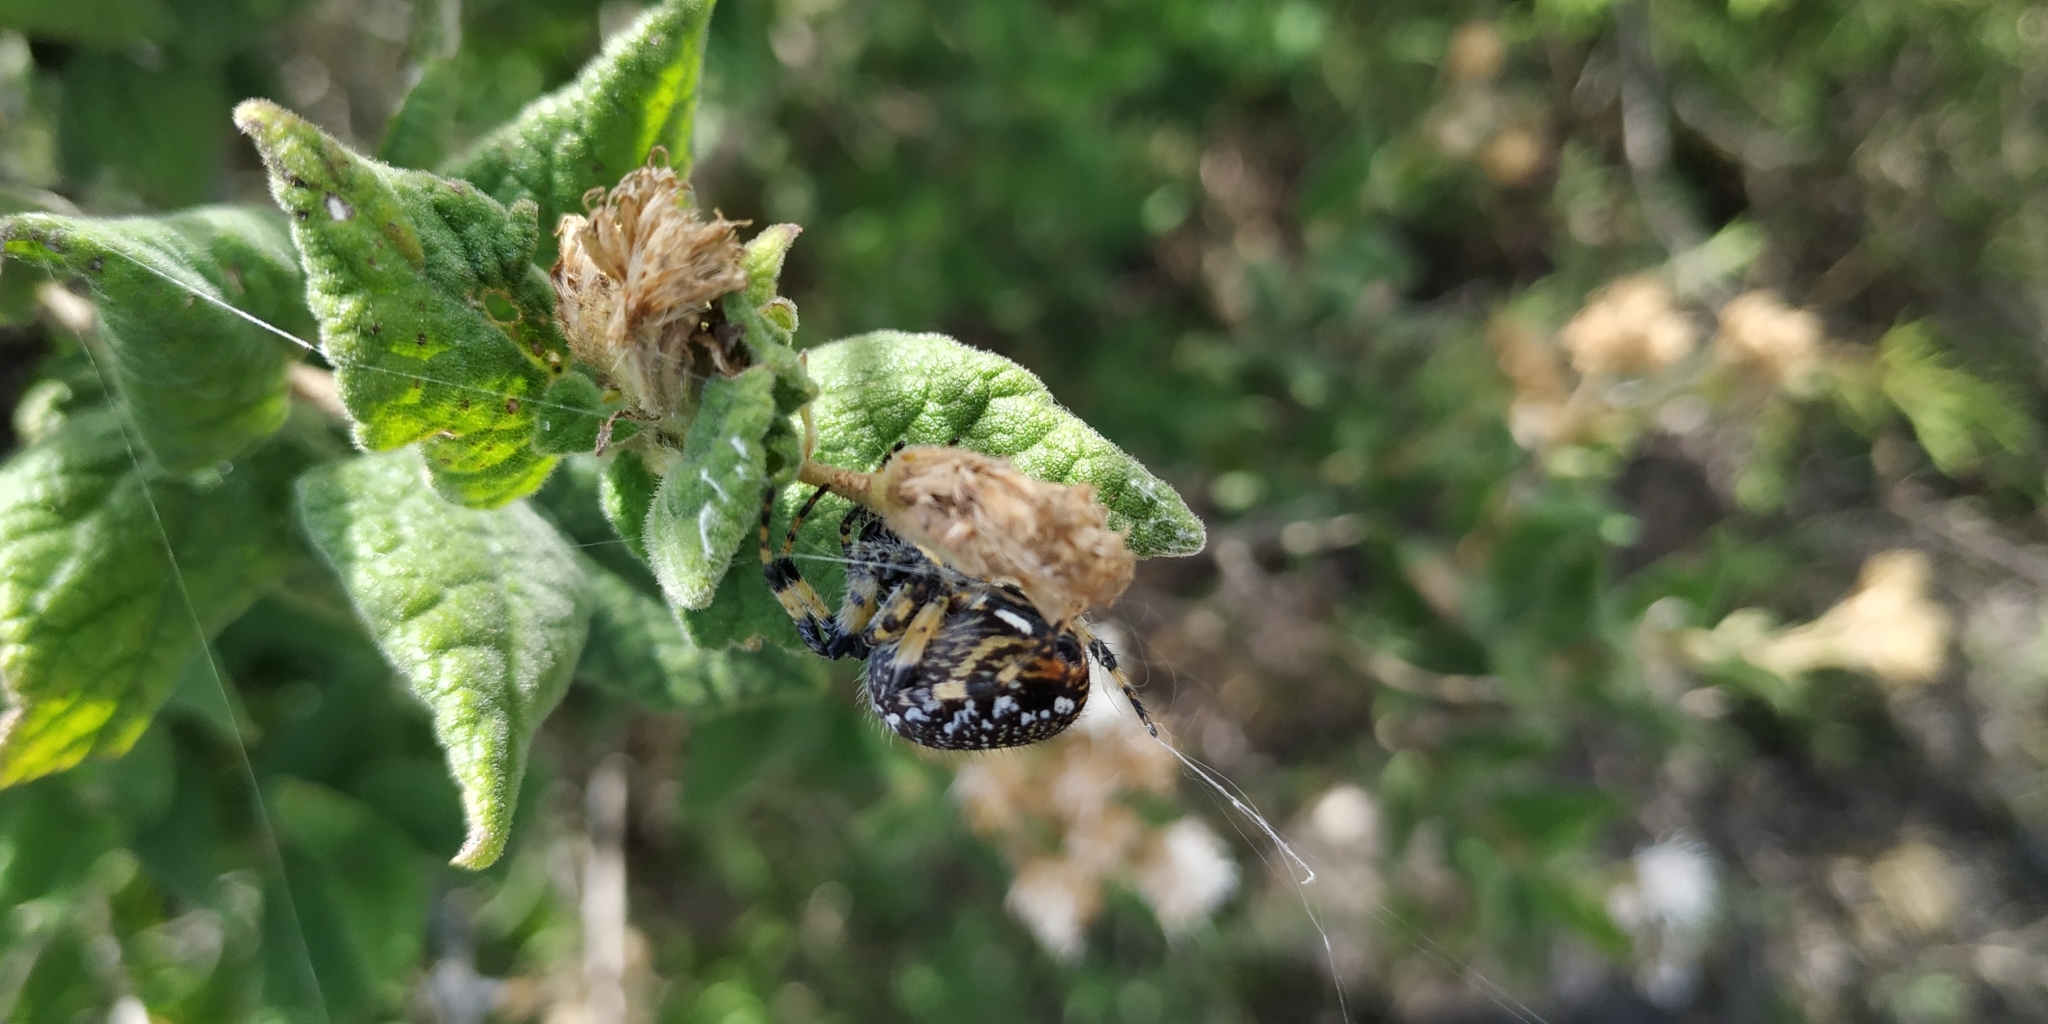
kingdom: Animalia
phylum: Arthropoda
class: Arachnida
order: Araneae
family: Araneidae
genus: Neoscona
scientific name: Neoscona orizabensis
